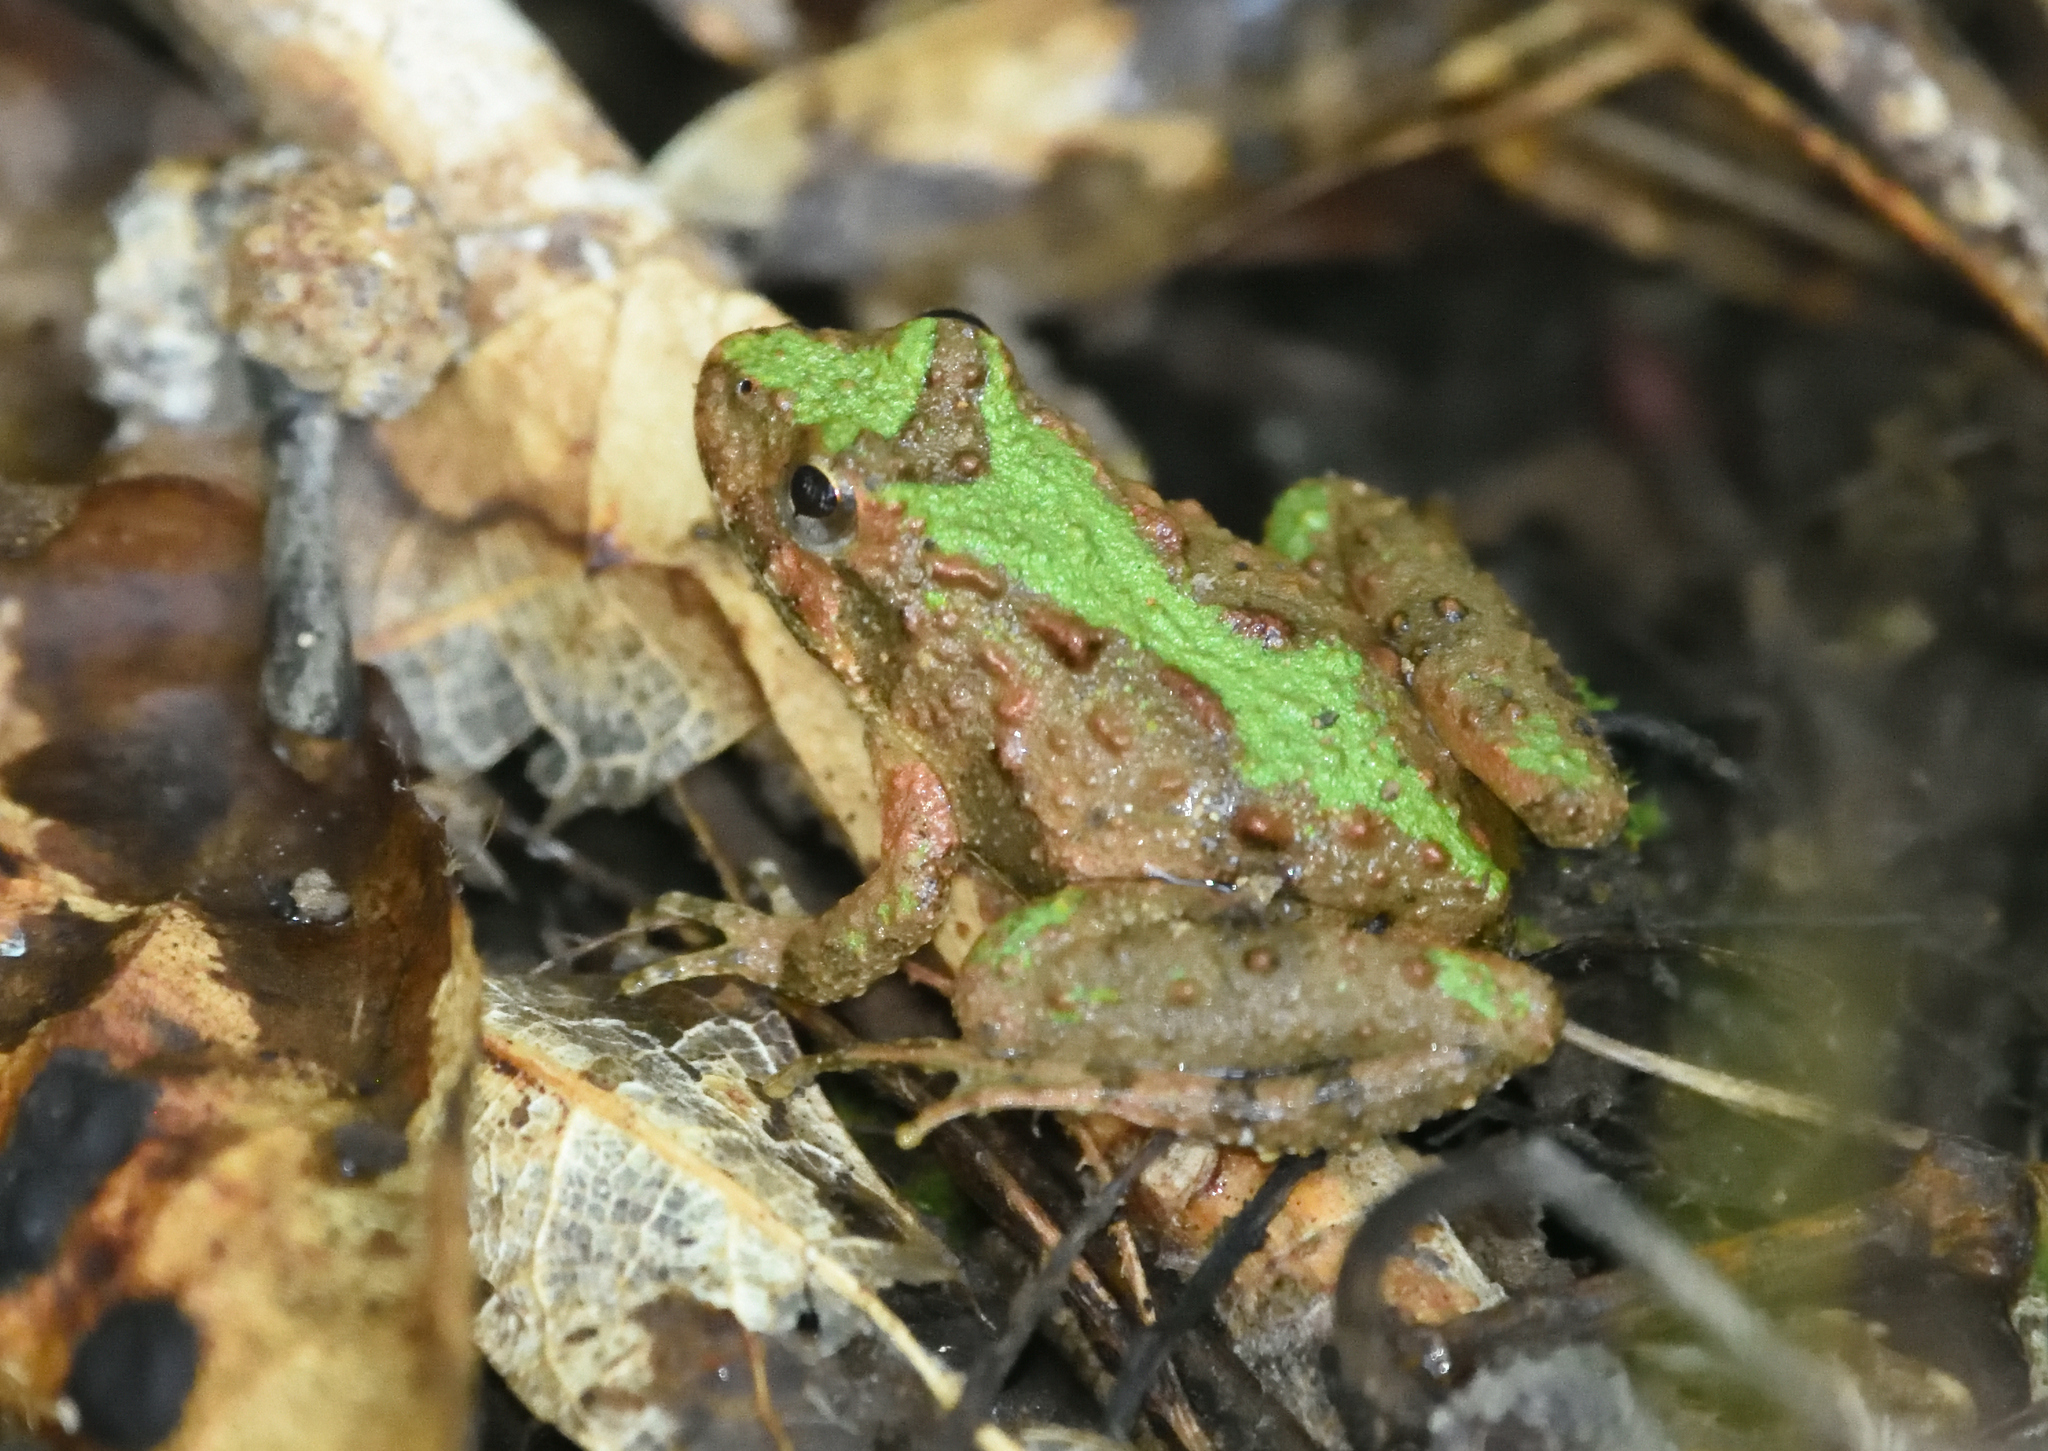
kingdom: Animalia
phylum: Chordata
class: Amphibia
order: Anura
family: Hylidae
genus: Acris
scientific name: Acris crepitans
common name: Northern cricket frog
